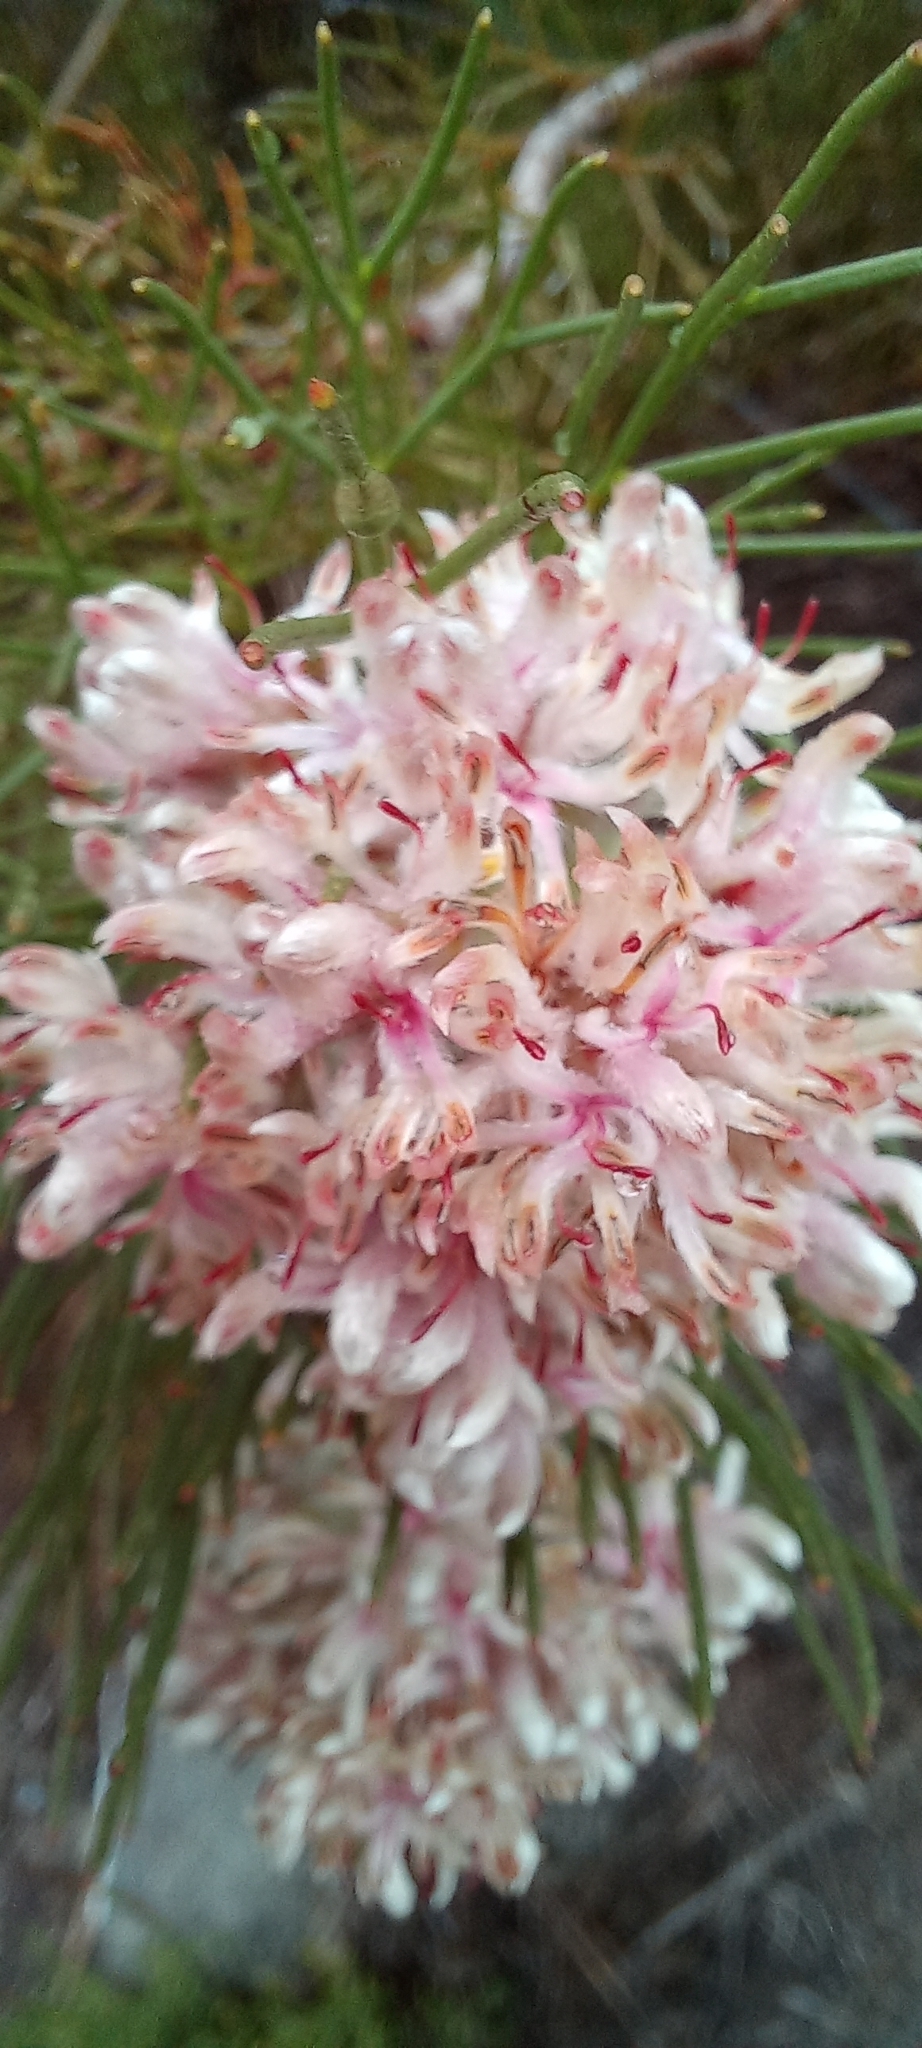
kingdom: Plantae
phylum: Tracheophyta
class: Magnoliopsida
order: Proteales
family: Proteaceae
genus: Serruria
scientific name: Serruria ascendens
